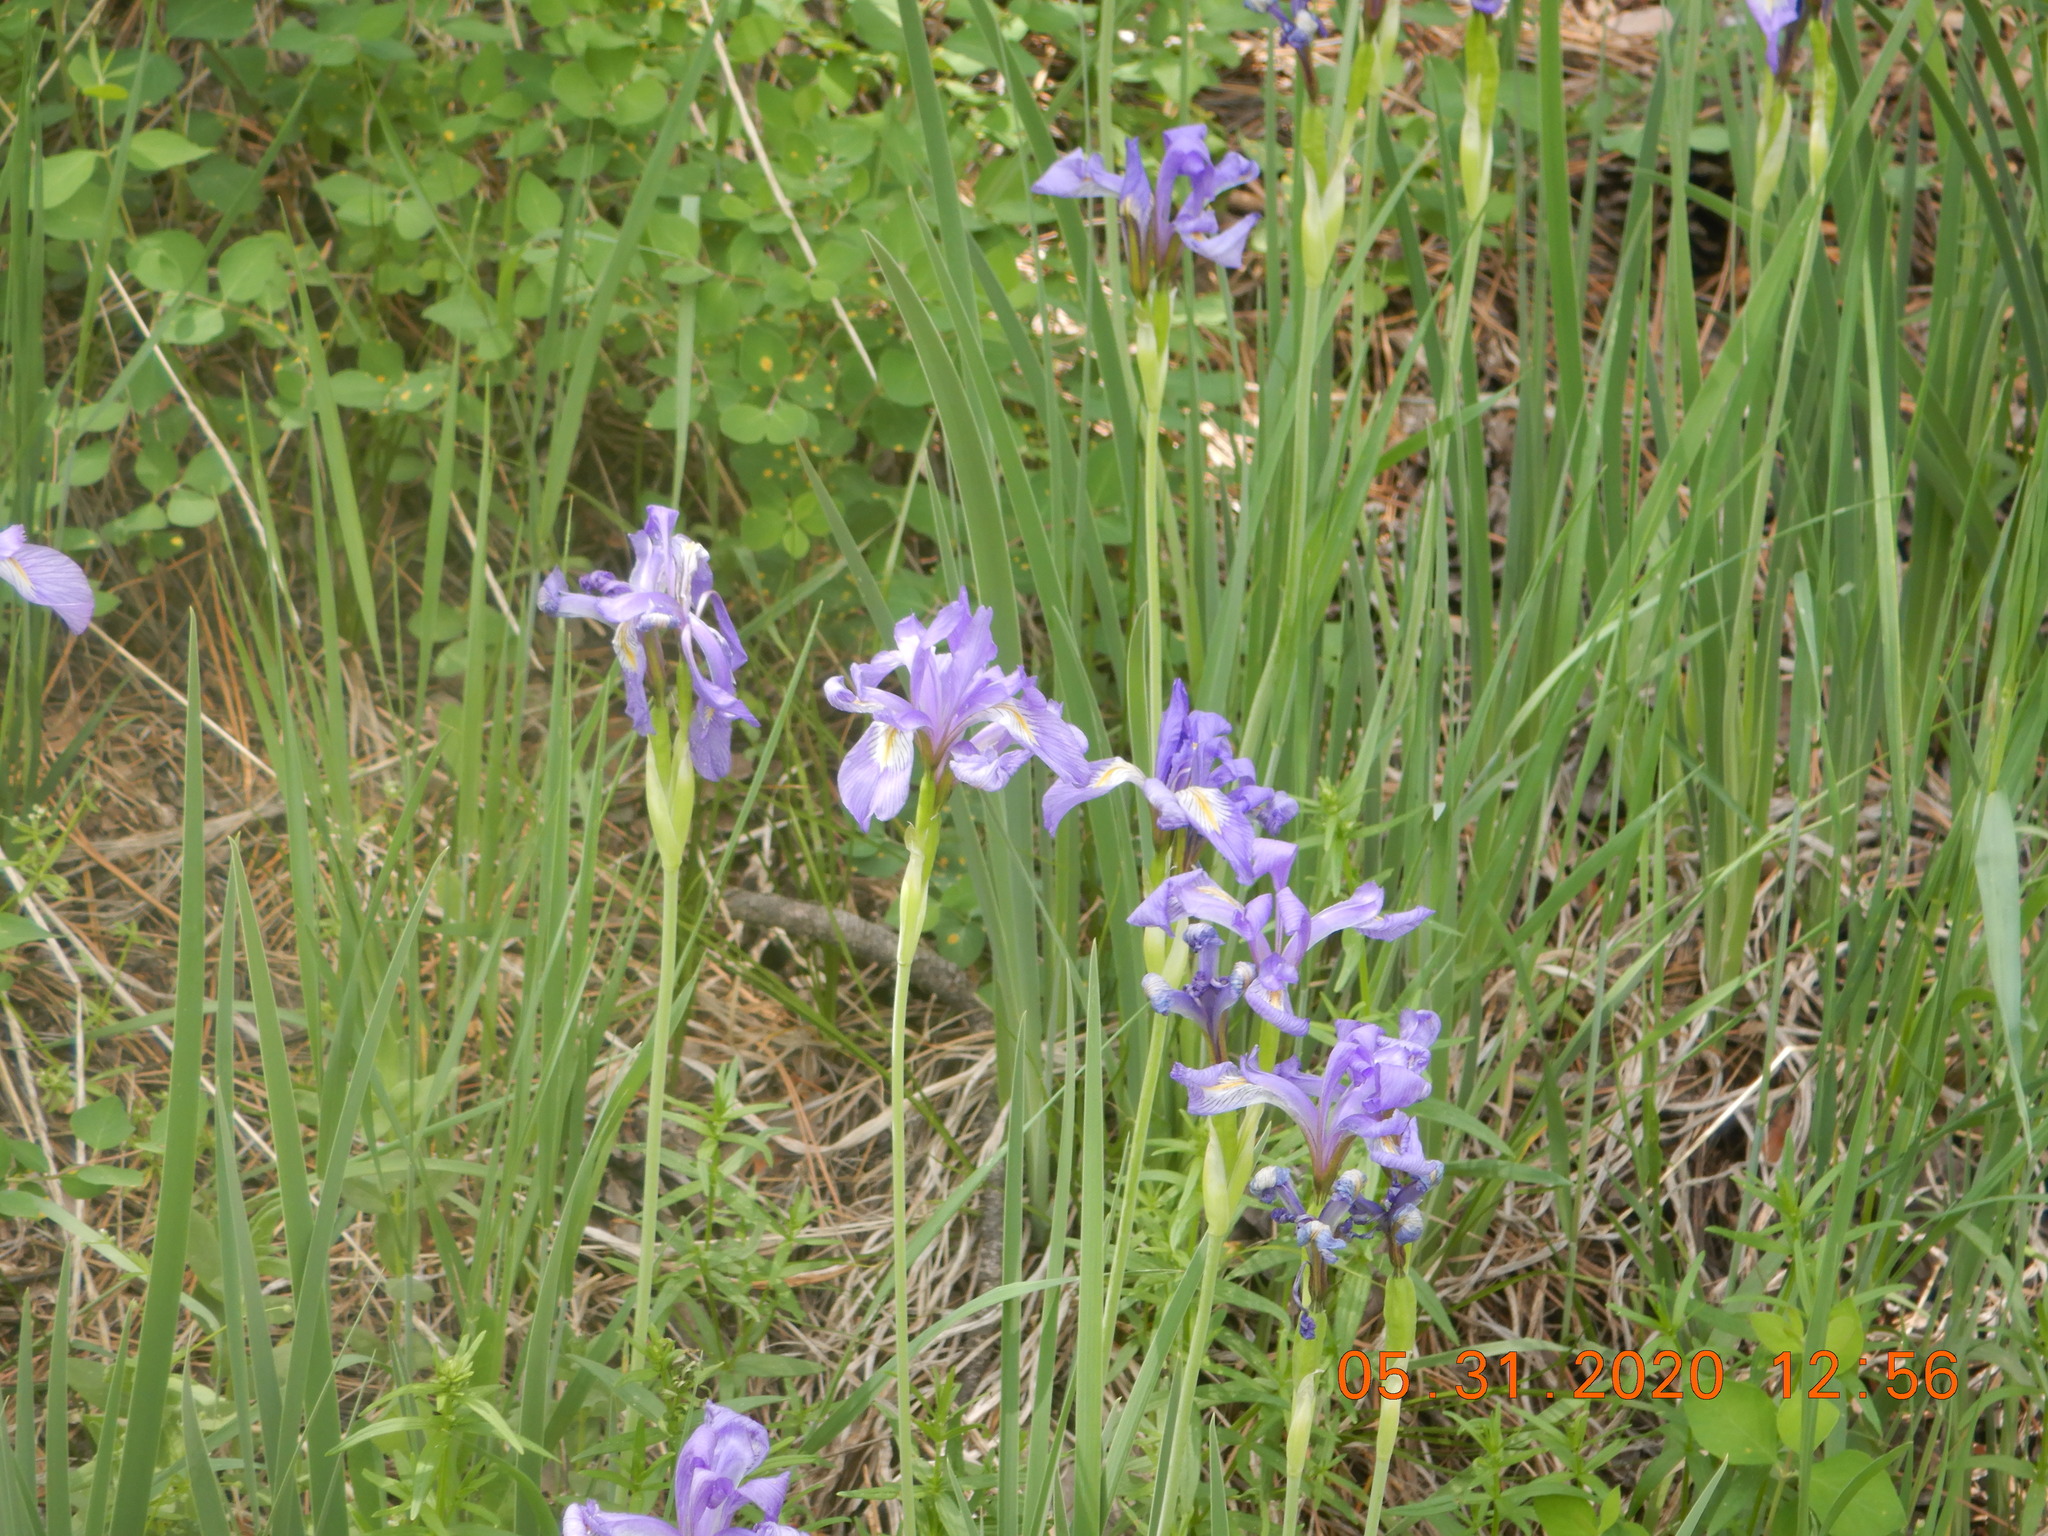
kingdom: Plantae
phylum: Tracheophyta
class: Liliopsida
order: Asparagales
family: Iridaceae
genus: Iris
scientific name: Iris missouriensis
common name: Rocky mountain iris
